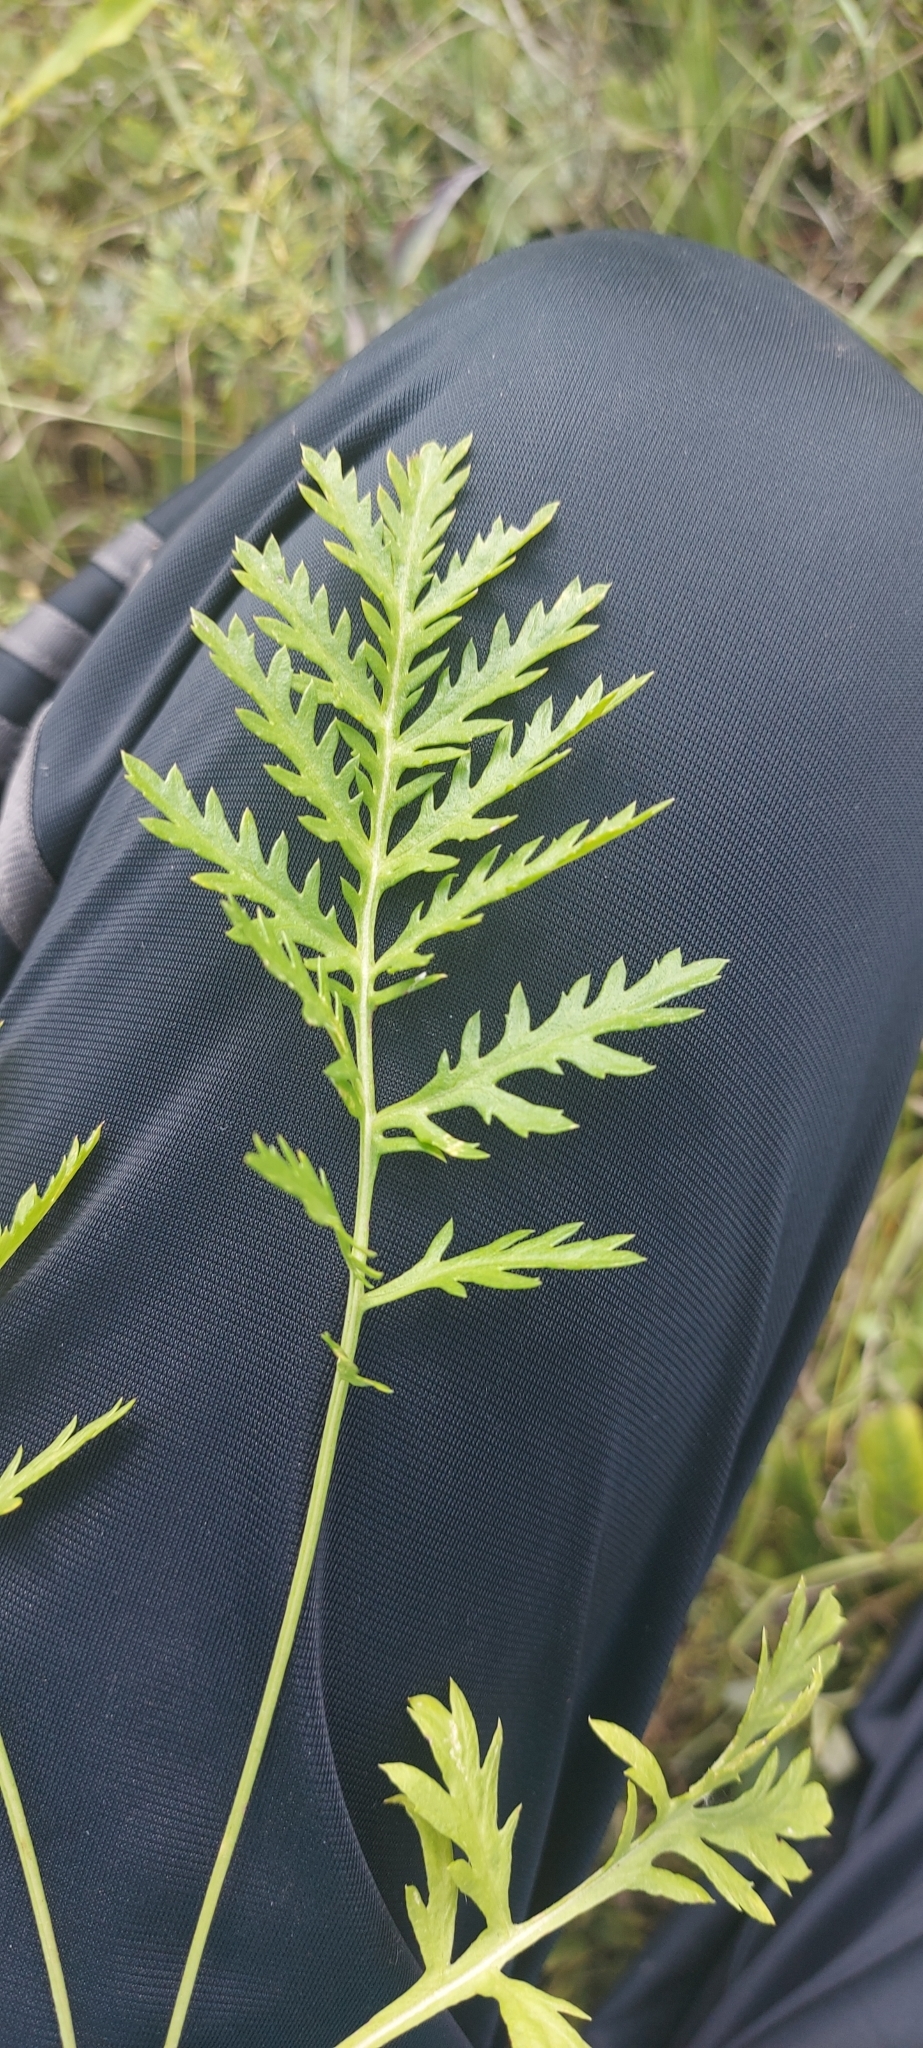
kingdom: Plantae
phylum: Tracheophyta
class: Magnoliopsida
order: Asterales
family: Asteraceae
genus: Artemisia
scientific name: Artemisia latifolia
